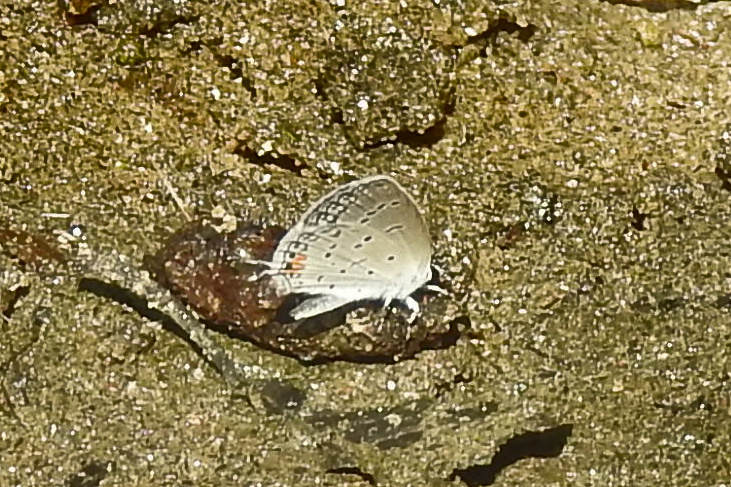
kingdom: Animalia
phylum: Arthropoda
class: Insecta
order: Lepidoptera
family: Lycaenidae
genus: Elkalyce
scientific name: Elkalyce comyntas
